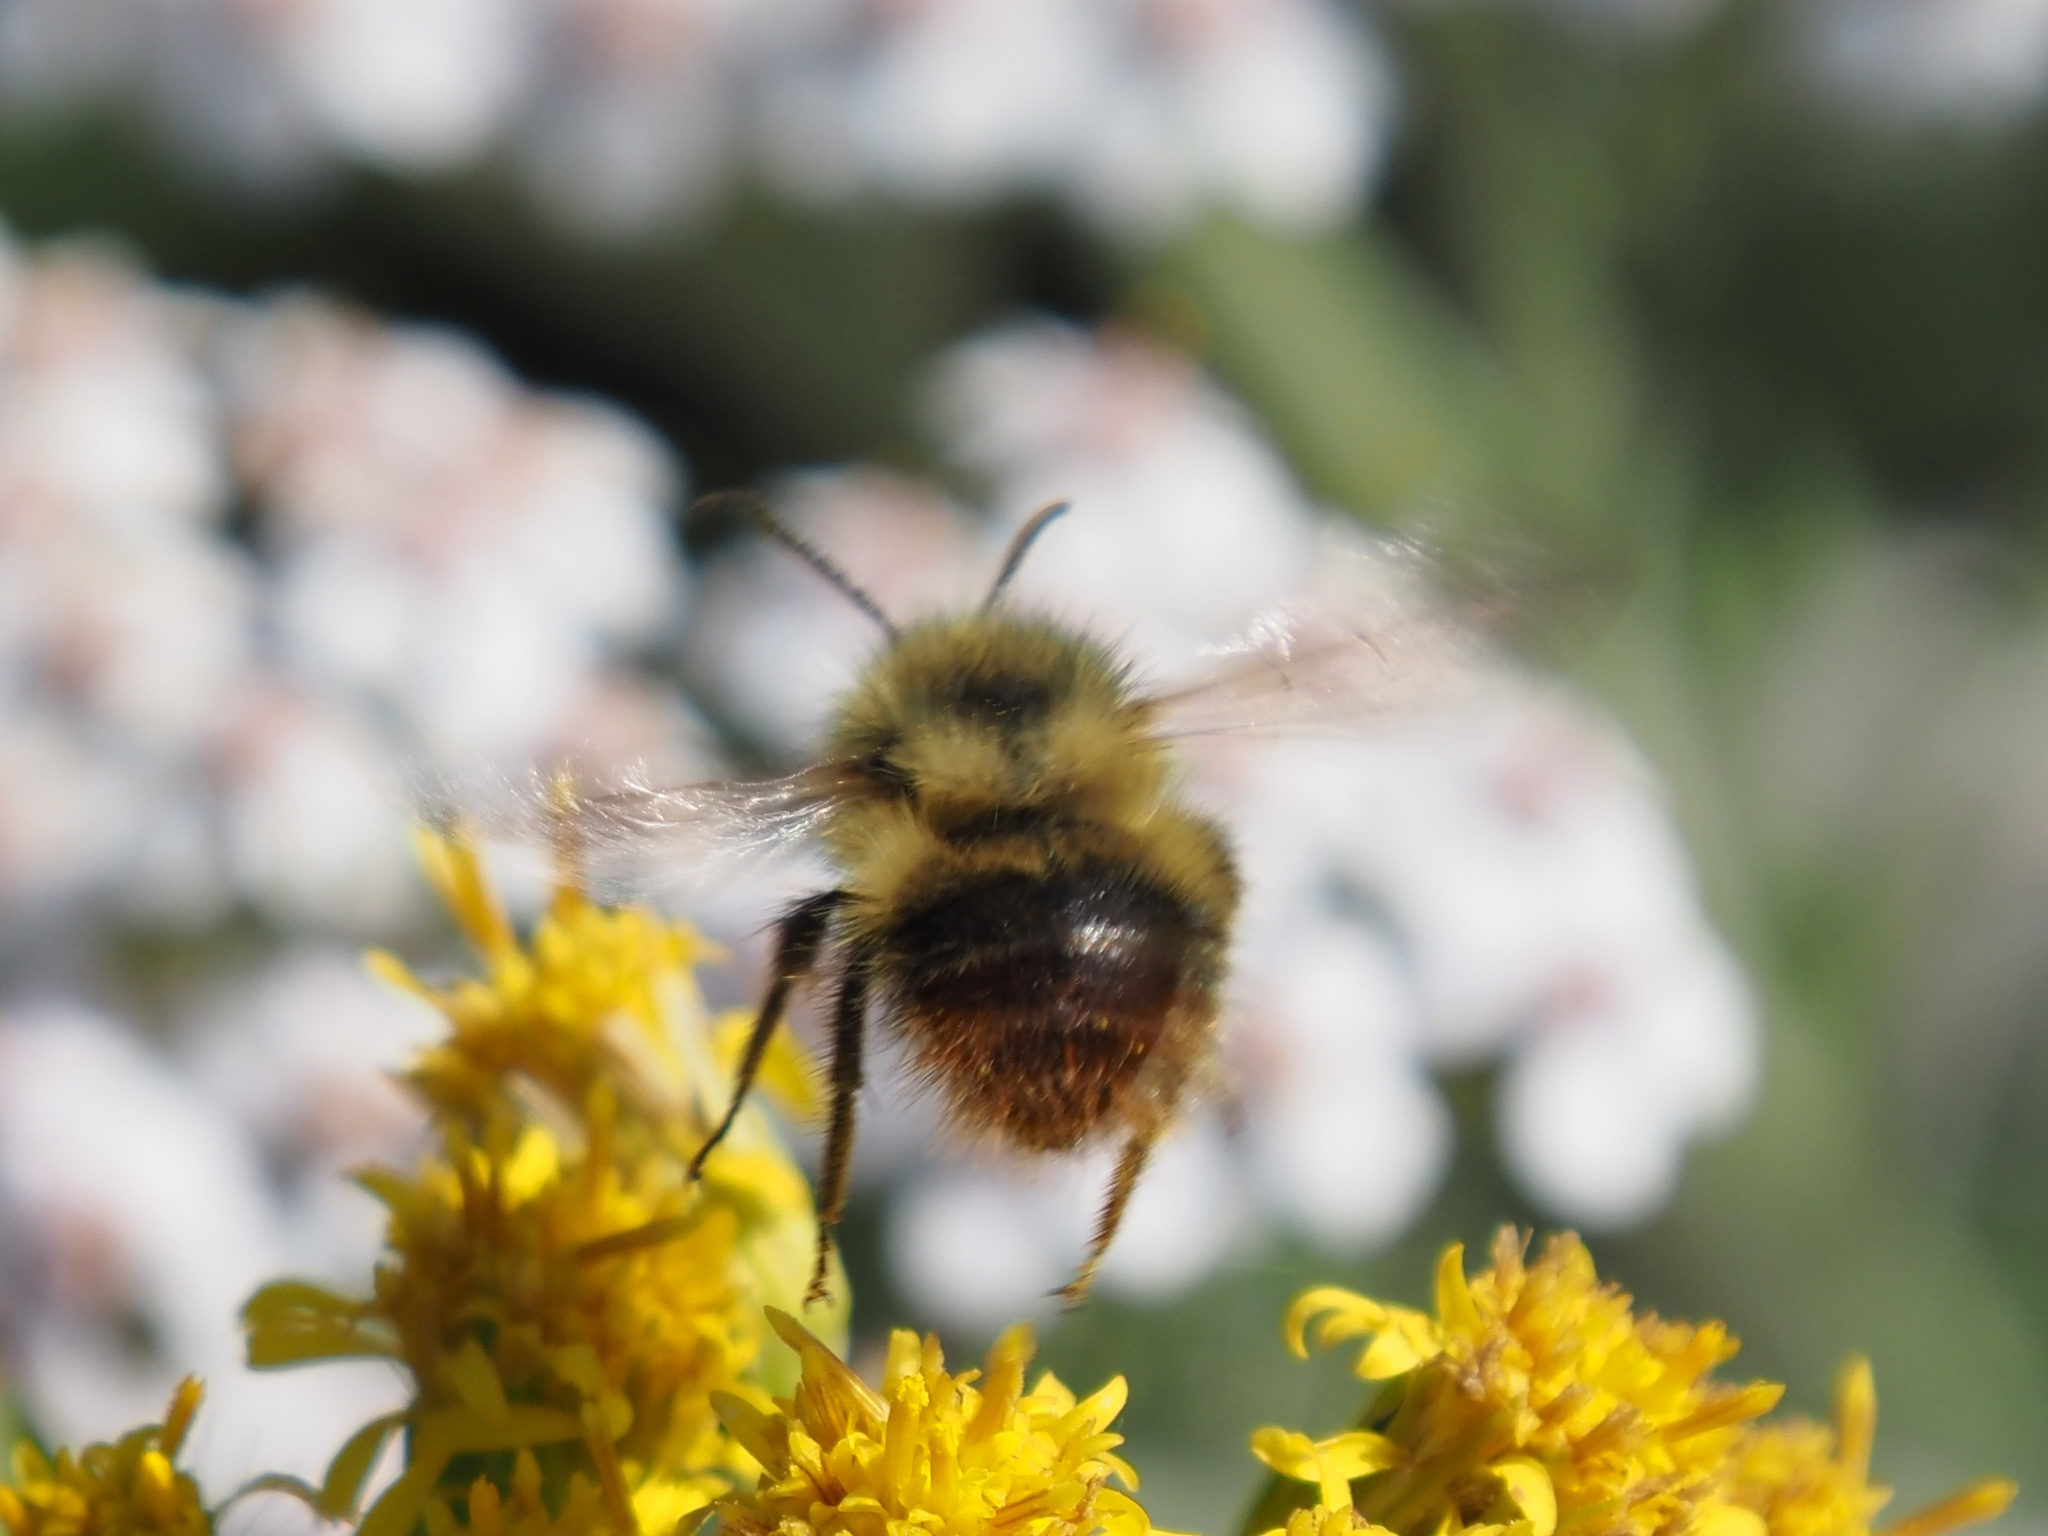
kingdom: Animalia
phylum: Arthropoda
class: Insecta
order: Hymenoptera
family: Apidae
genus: Bombus
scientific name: Bombus mixtus
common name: Fuzzy-horned bumble bee
